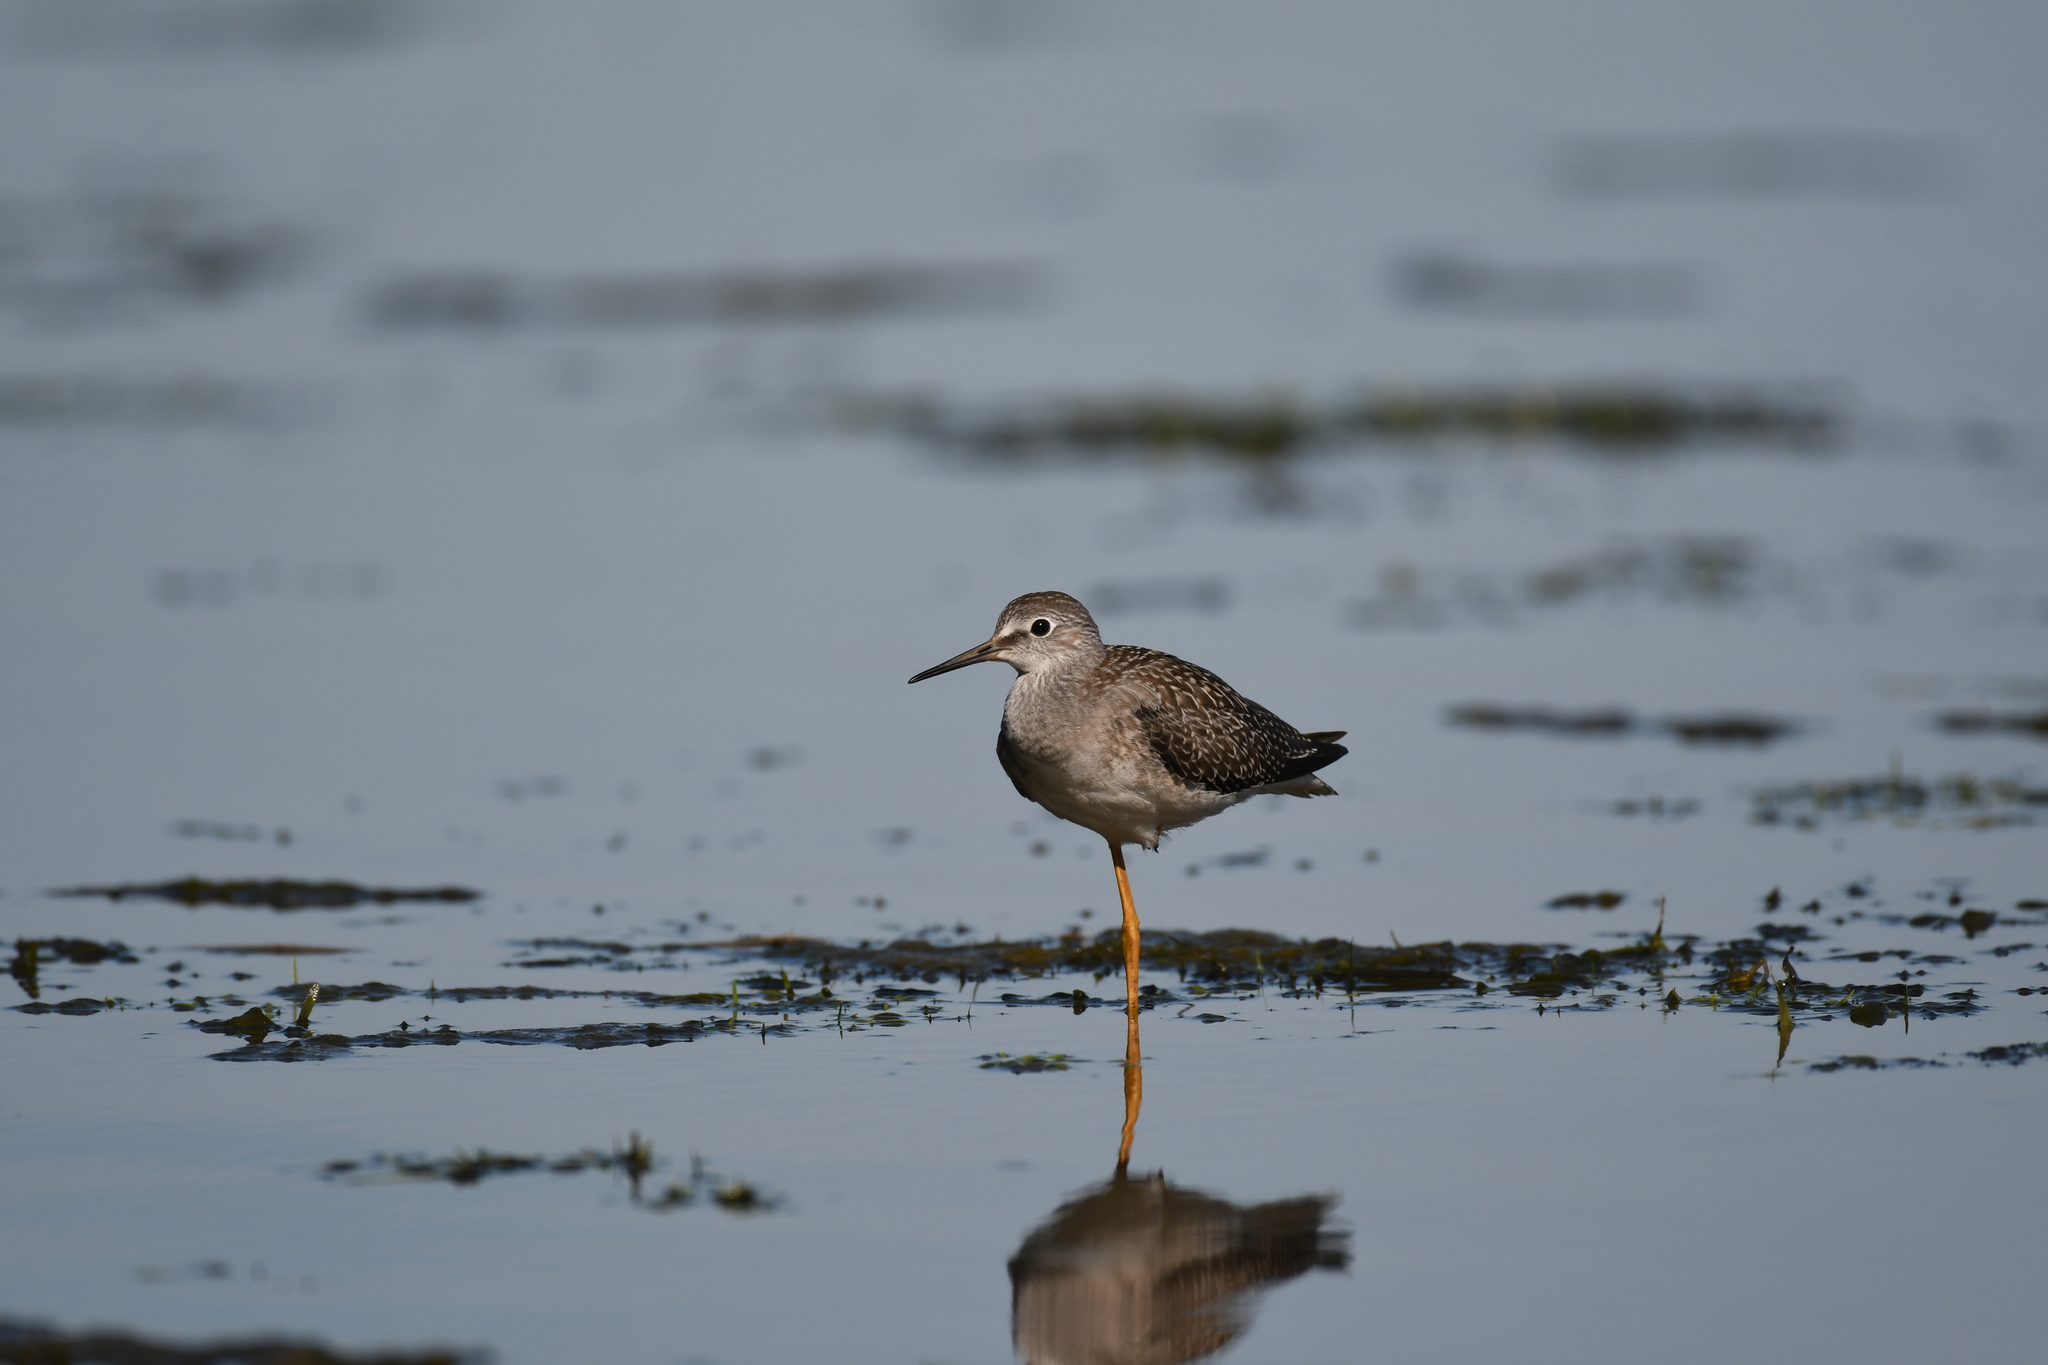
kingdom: Animalia
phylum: Chordata
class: Aves
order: Charadriiformes
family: Scolopacidae
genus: Tringa
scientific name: Tringa flavipes
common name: Lesser yellowlegs
